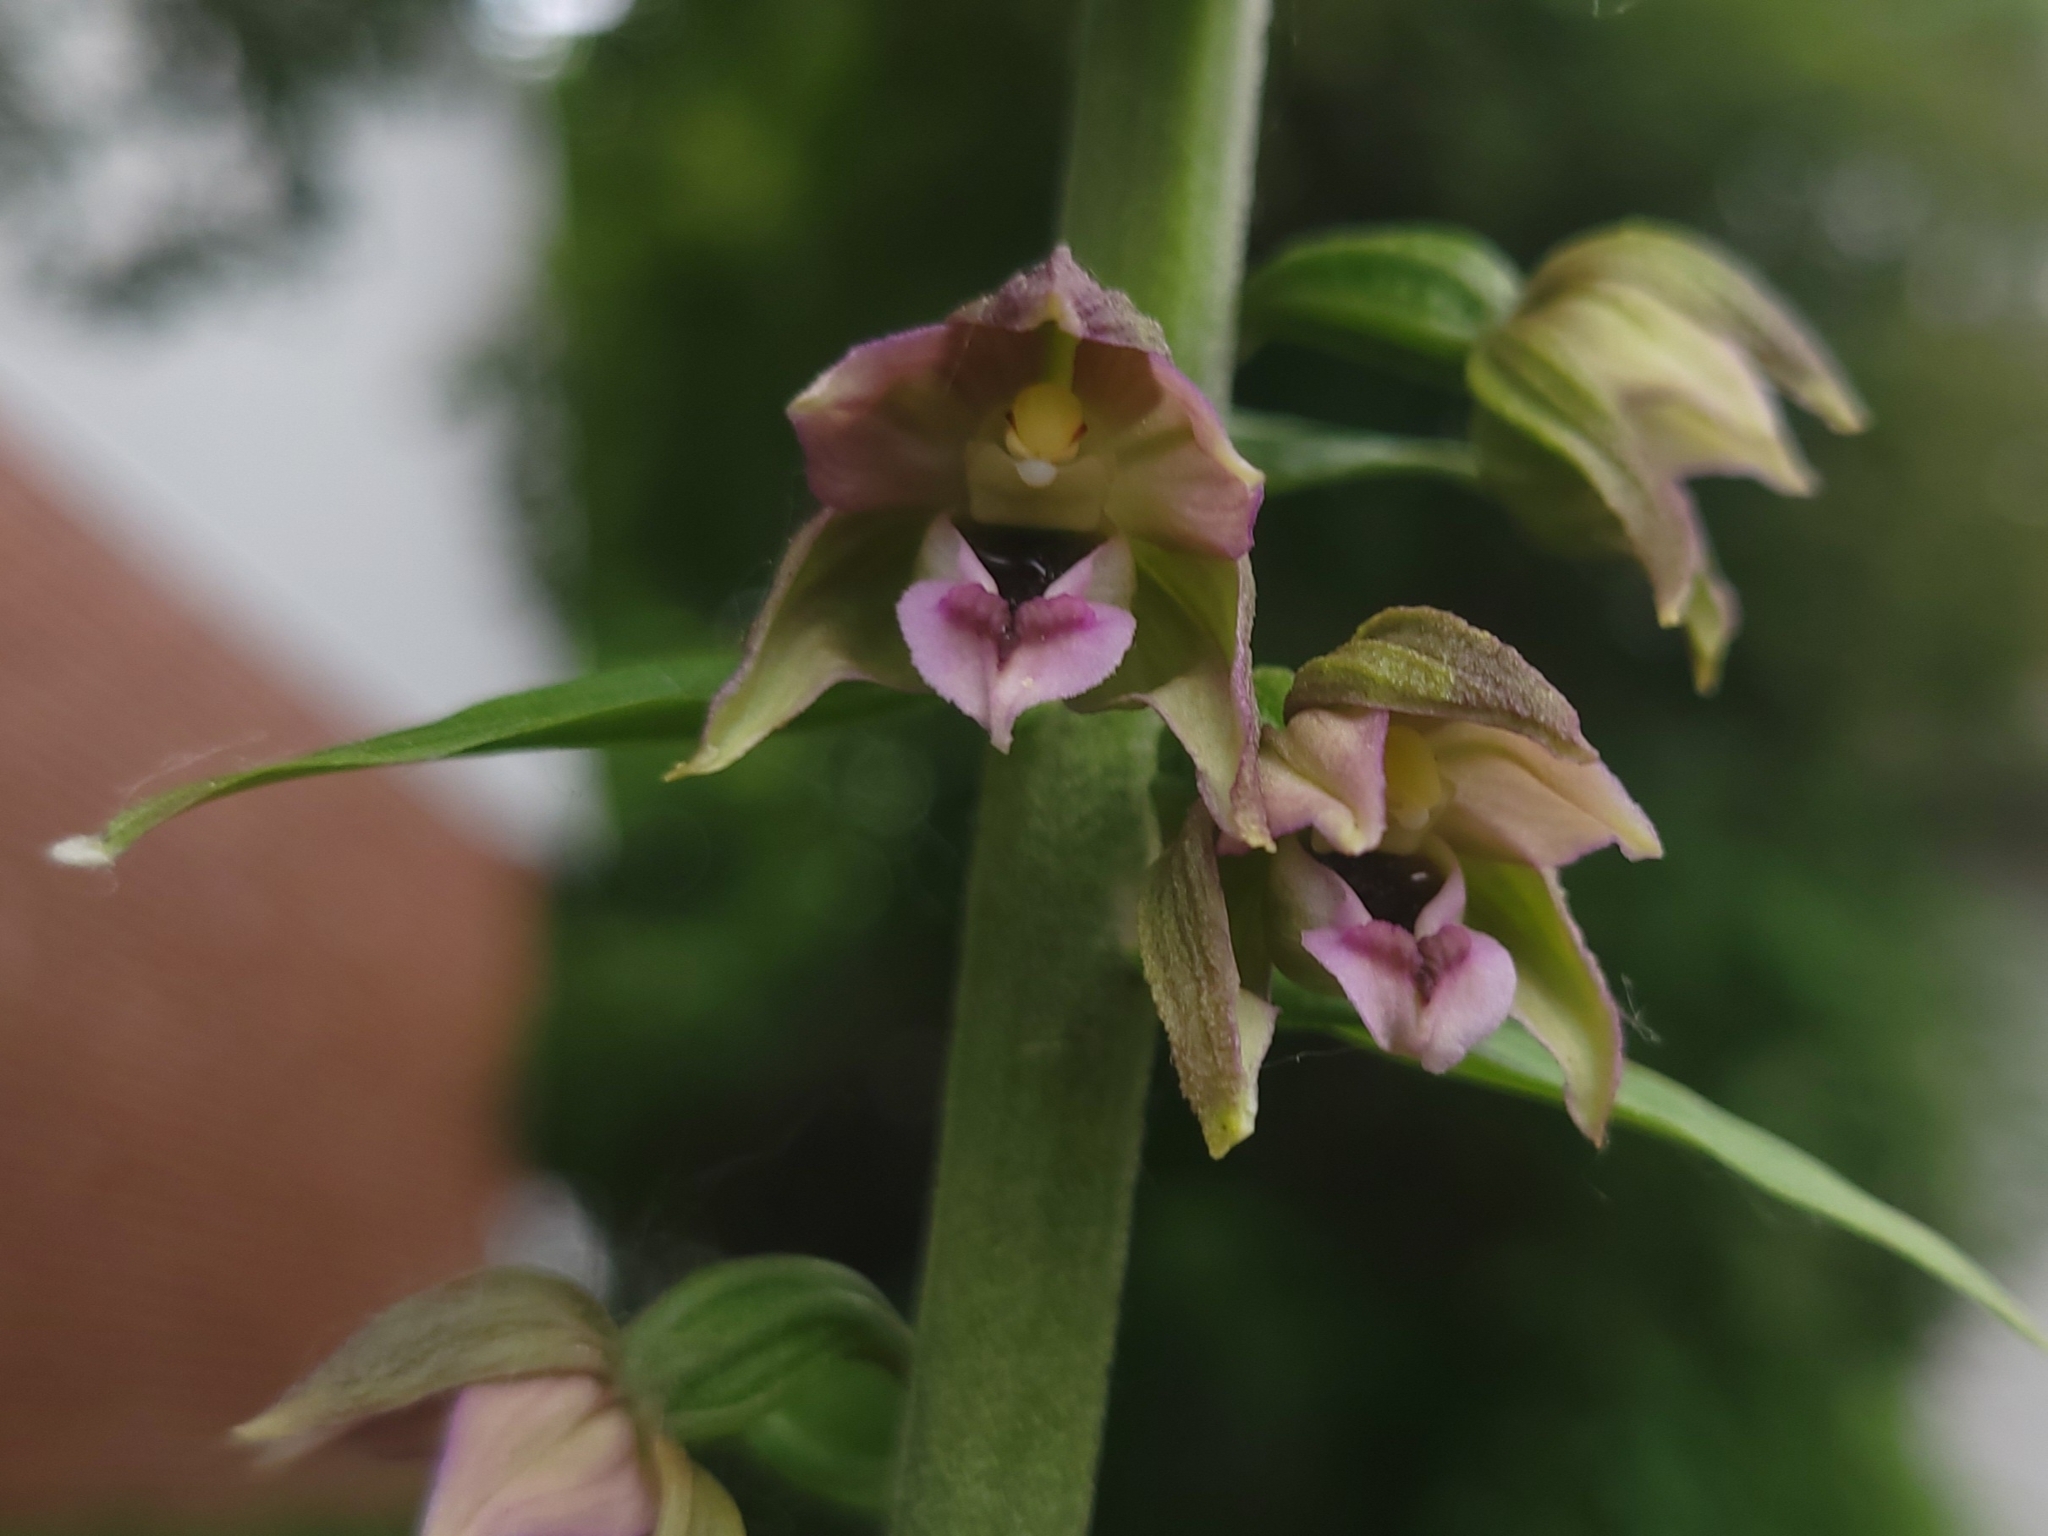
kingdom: Plantae
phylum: Tracheophyta
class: Liliopsida
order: Asparagales
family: Orchidaceae
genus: Epipactis
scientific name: Epipactis helleborine
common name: Broad-leaved helleborine
